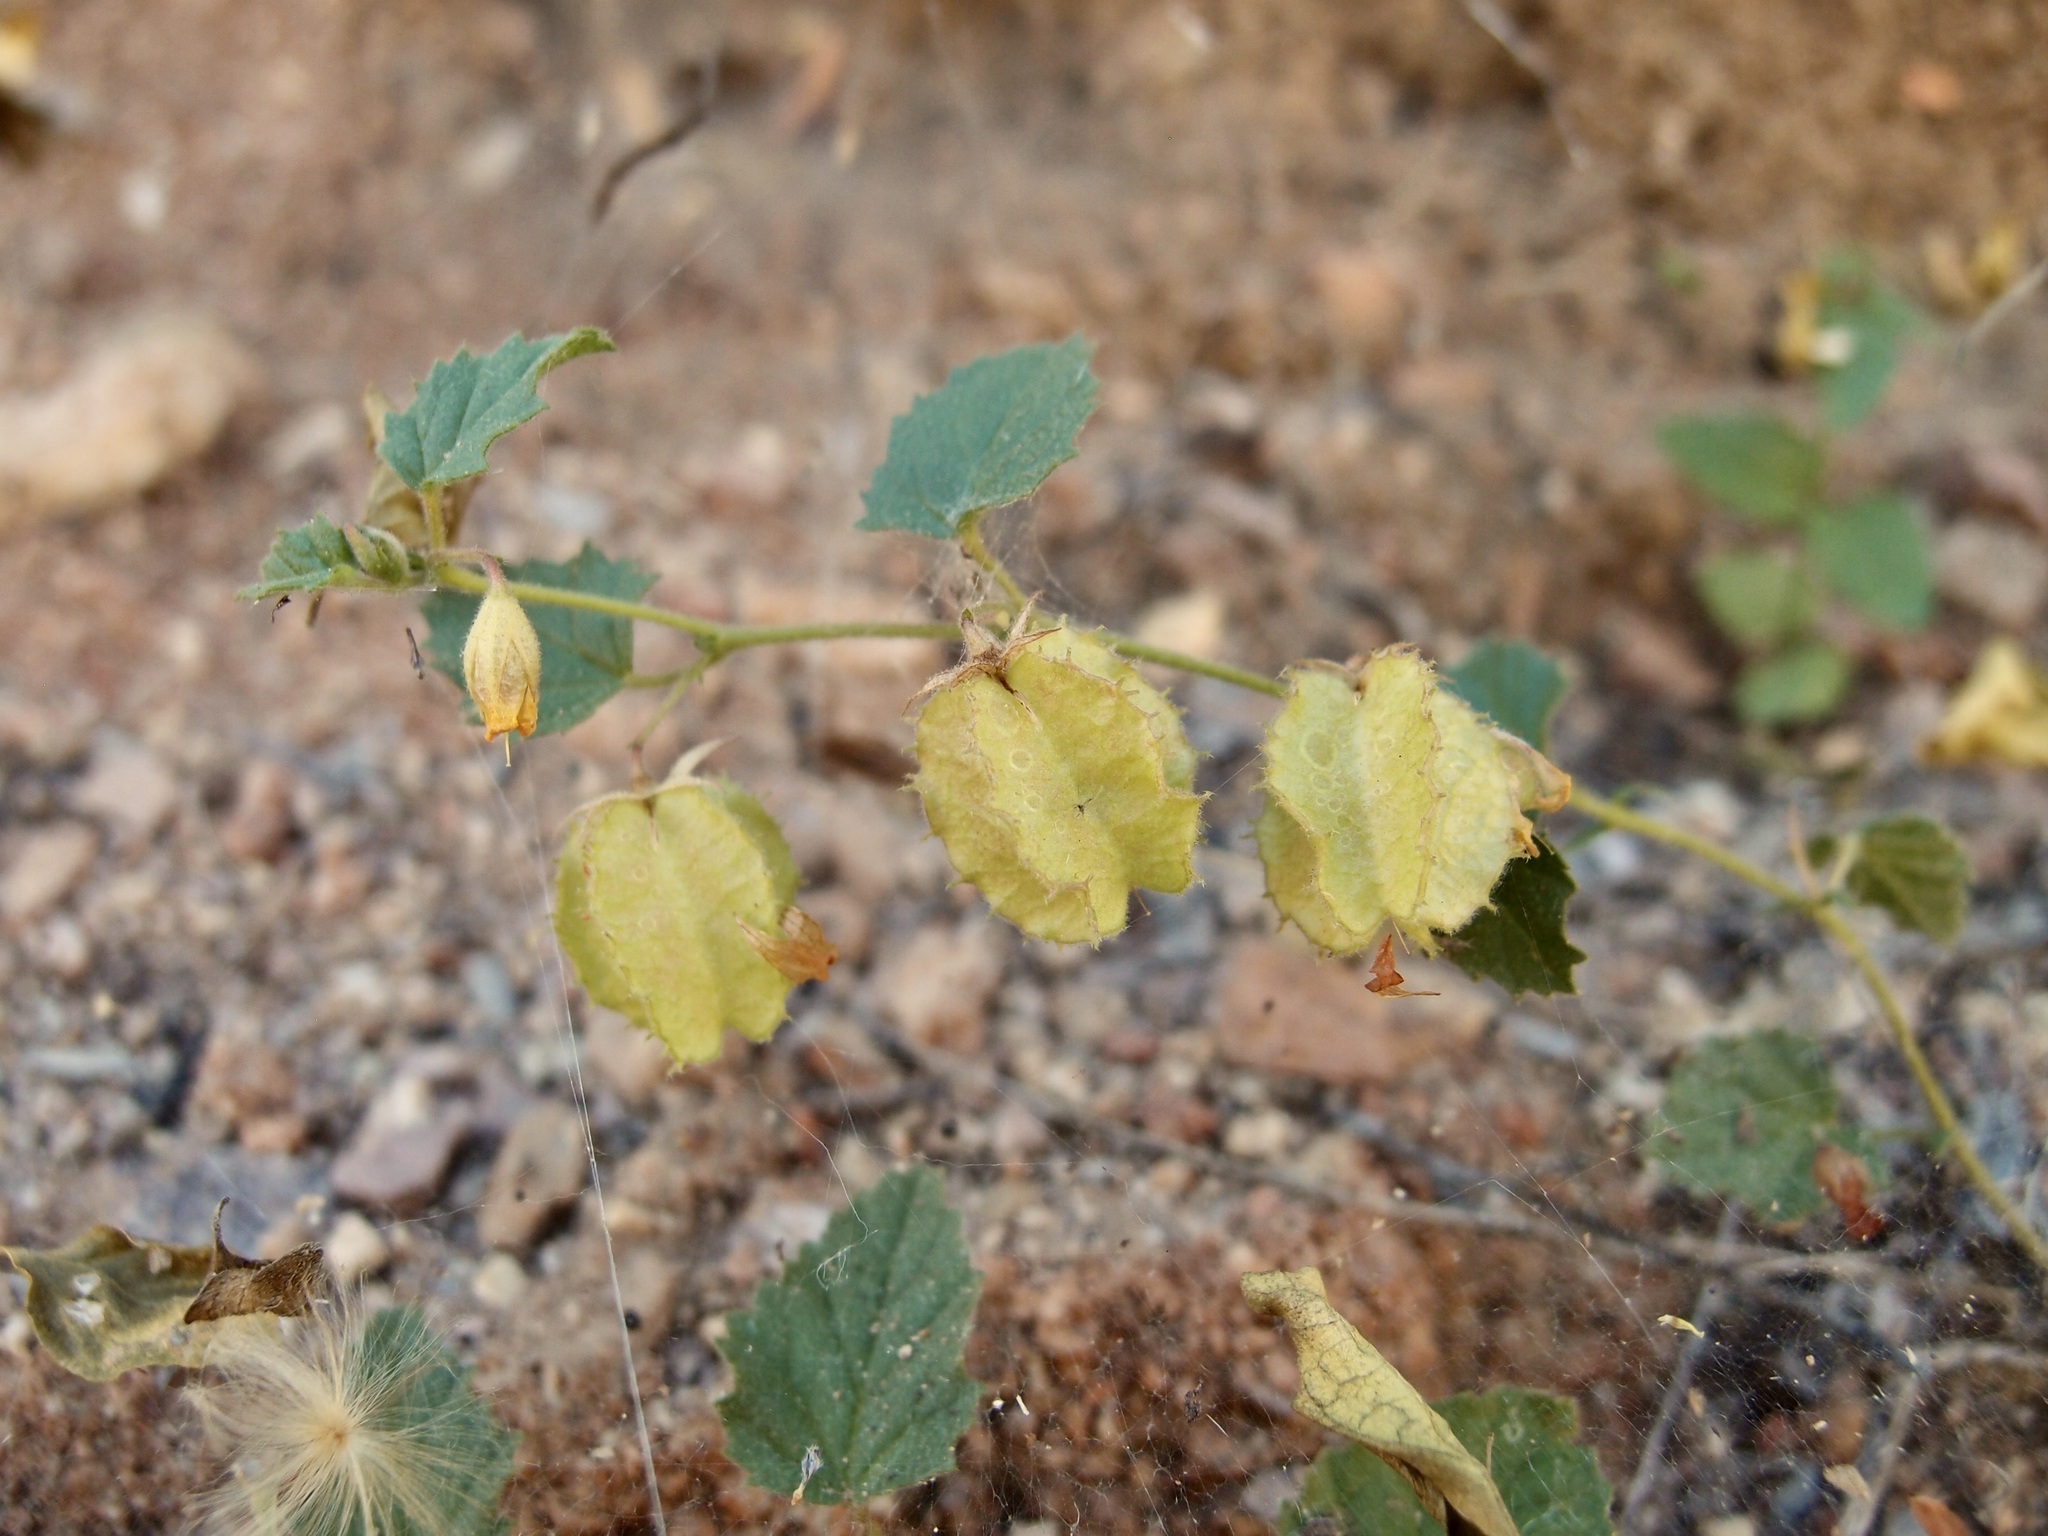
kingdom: Plantae
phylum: Tracheophyta
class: Magnoliopsida
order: Malvales
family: Malvaceae
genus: Hermannia
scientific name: Hermannia pauciflora
